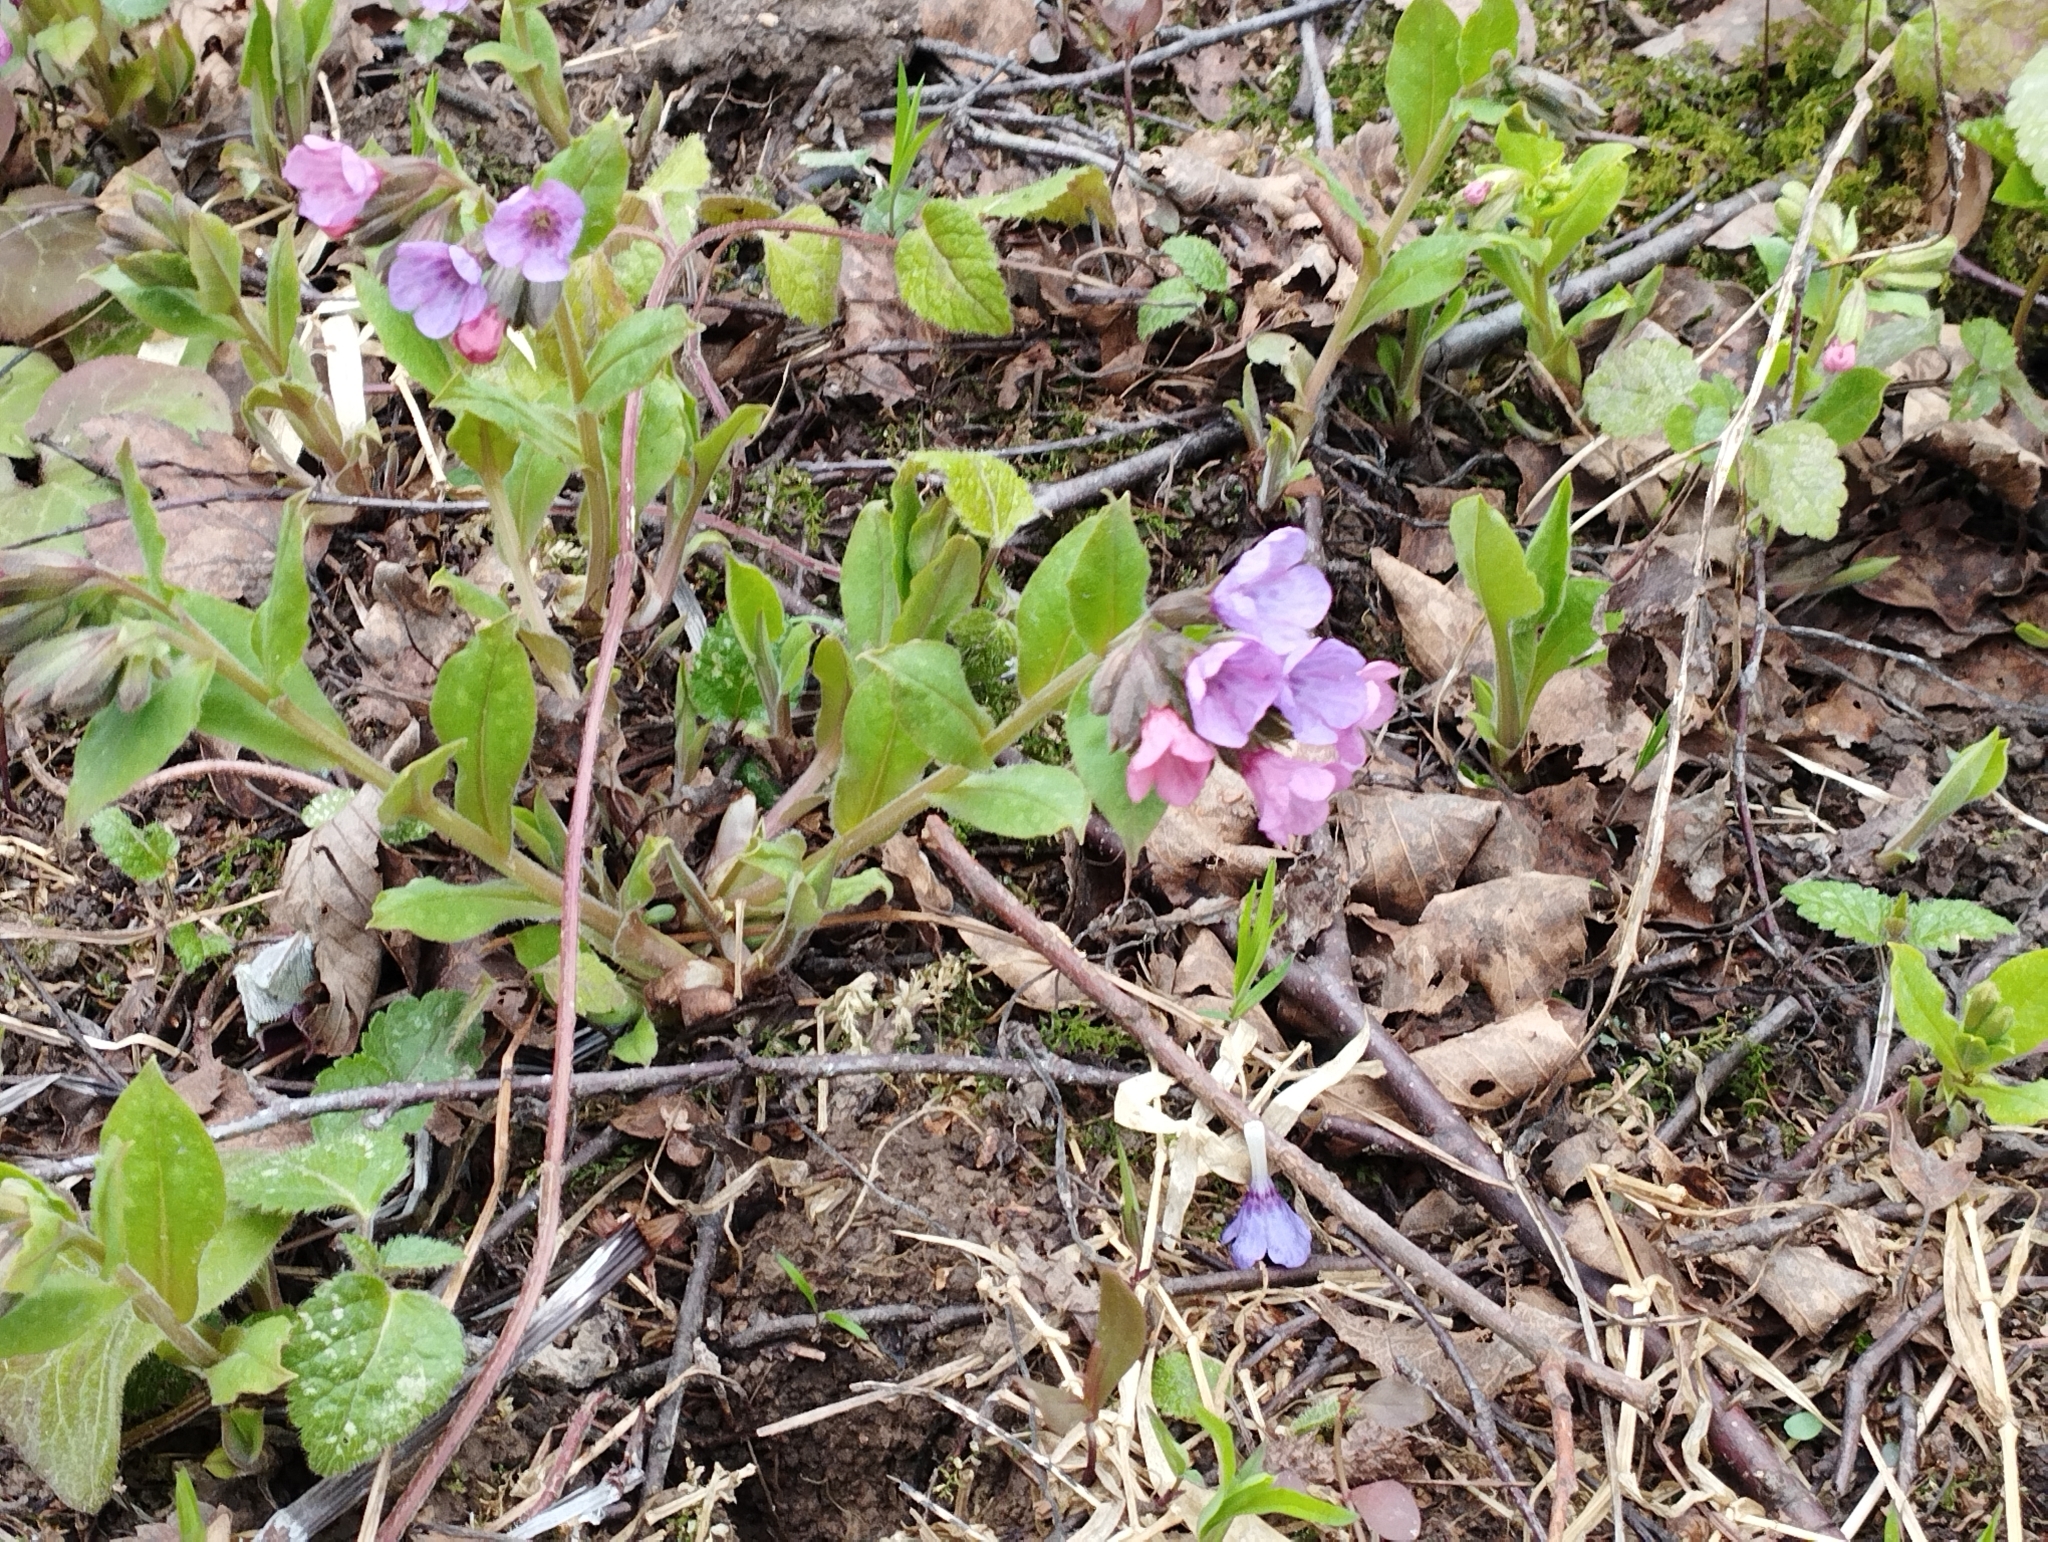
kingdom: Plantae
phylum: Tracheophyta
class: Magnoliopsida
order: Boraginales
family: Boraginaceae
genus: Pulmonaria
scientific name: Pulmonaria obscura
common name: Suffolk lungwort
